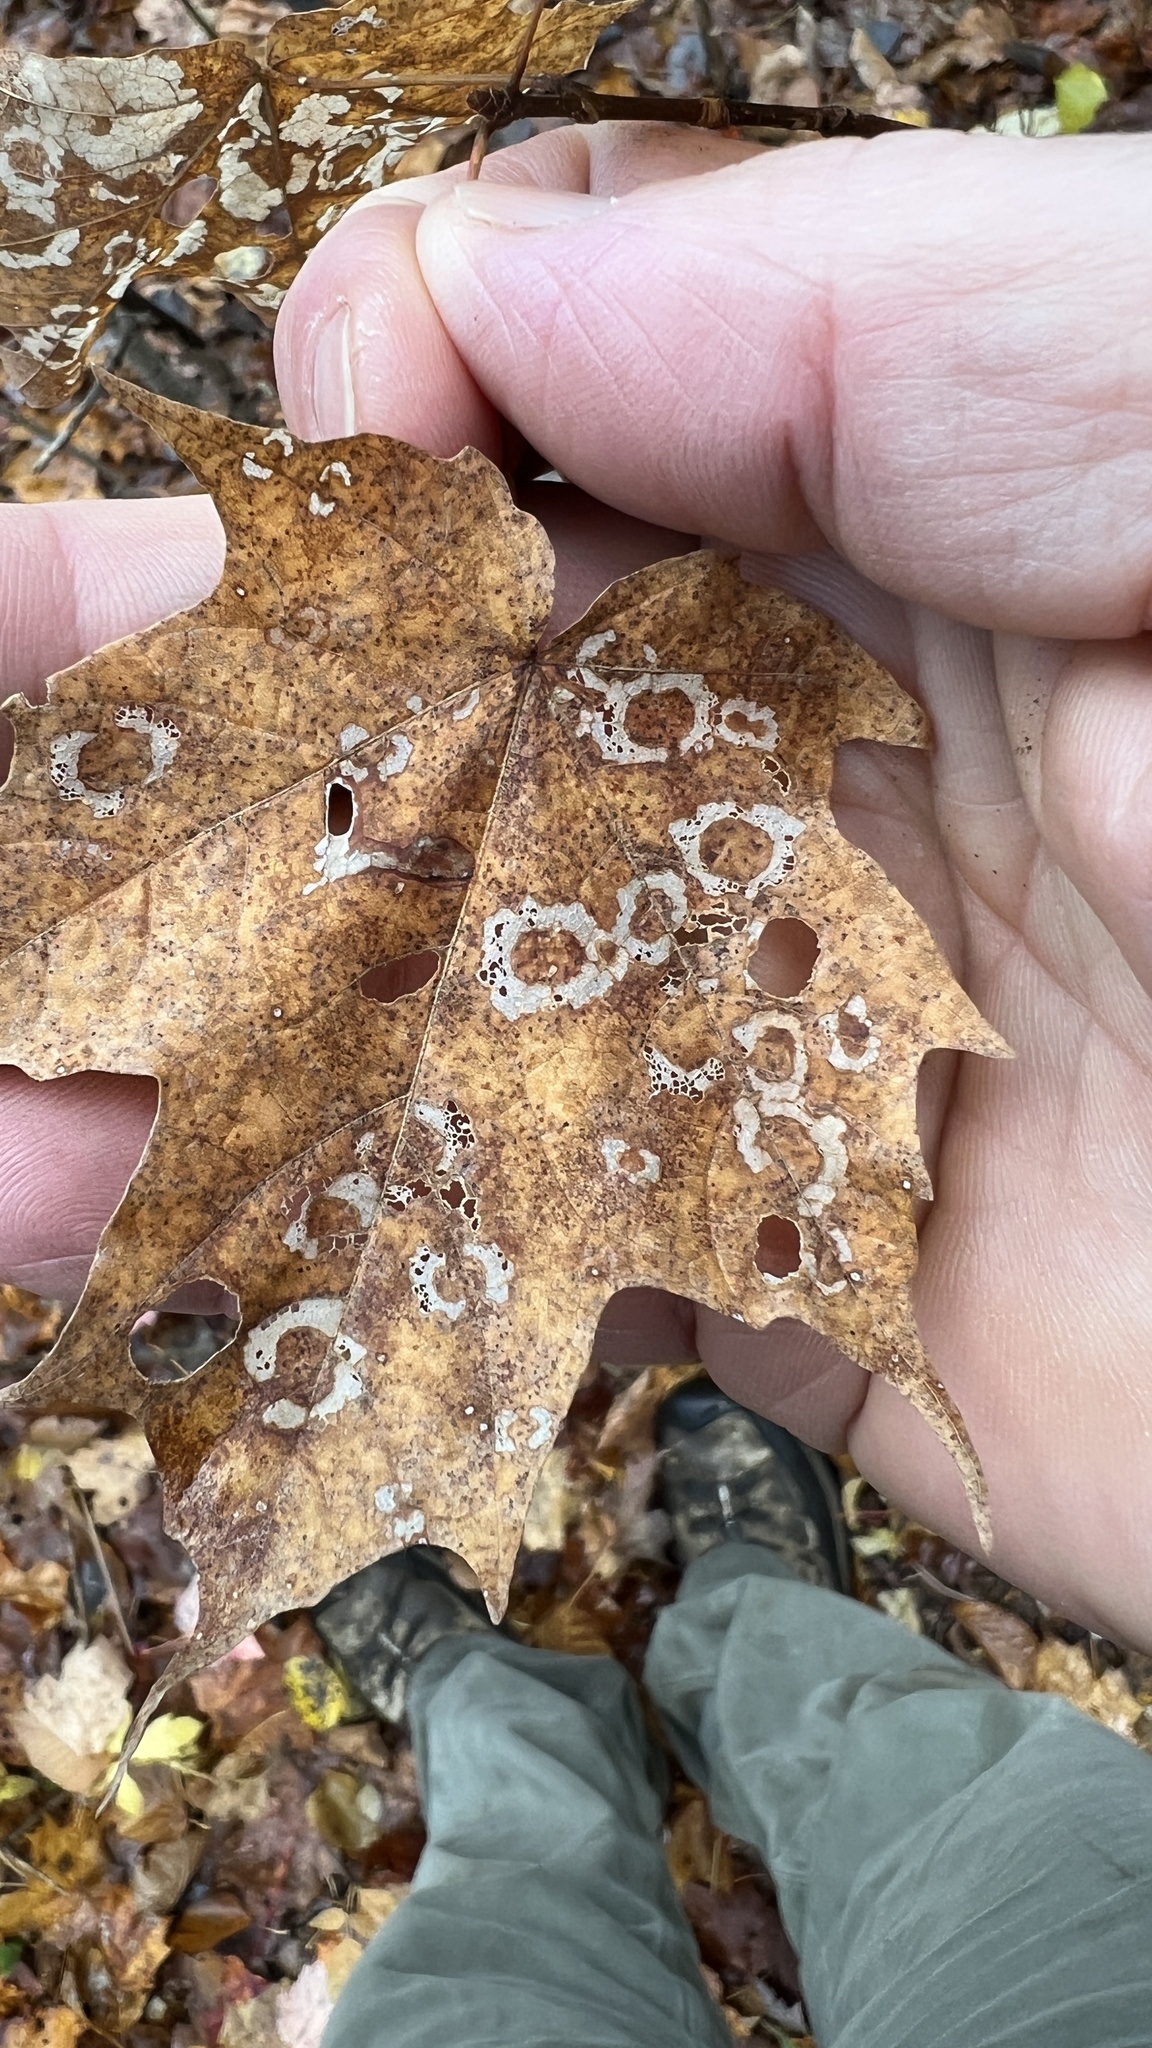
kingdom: Animalia
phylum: Arthropoda
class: Insecta
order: Lepidoptera
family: Incurvariidae
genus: Paraclemensia
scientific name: Paraclemensia acerifoliella
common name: Maple leafcutter
